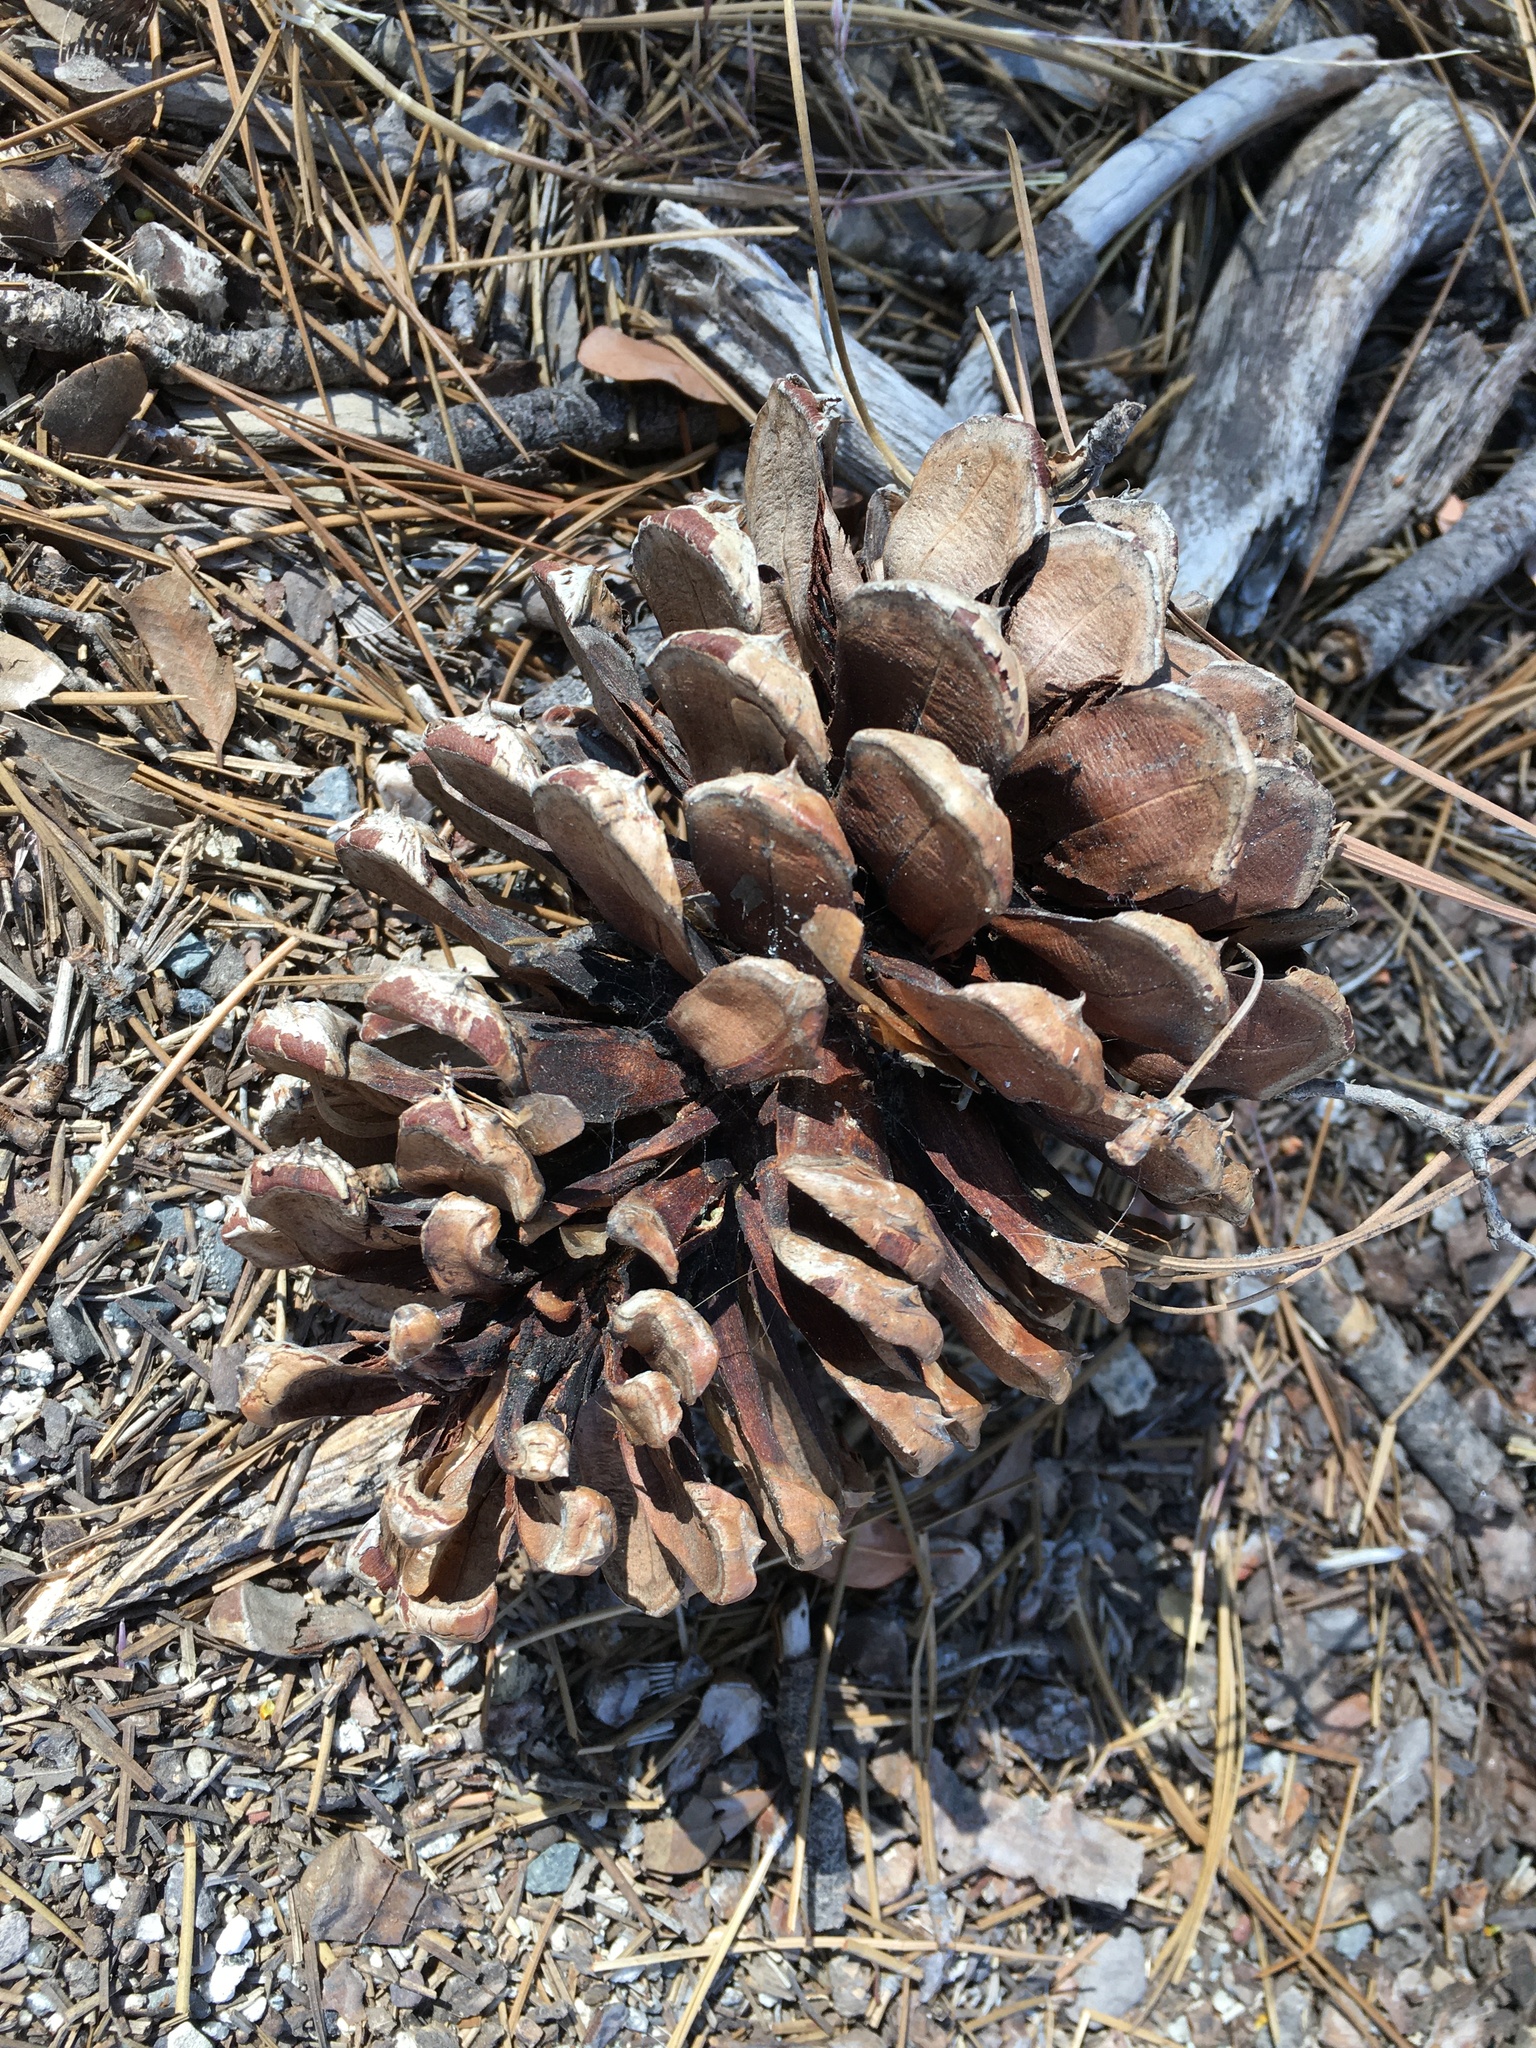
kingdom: Plantae
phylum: Tracheophyta
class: Pinopsida
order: Pinales
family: Pinaceae
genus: Pinus
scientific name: Pinus jeffreyi
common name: Jeffrey pine
